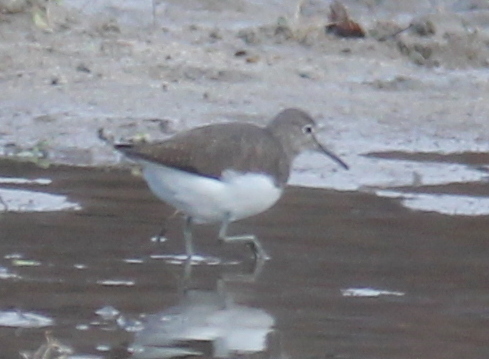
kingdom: Animalia
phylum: Chordata
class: Aves
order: Charadriiformes
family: Scolopacidae
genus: Tringa
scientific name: Tringa ochropus
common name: Green sandpiper
